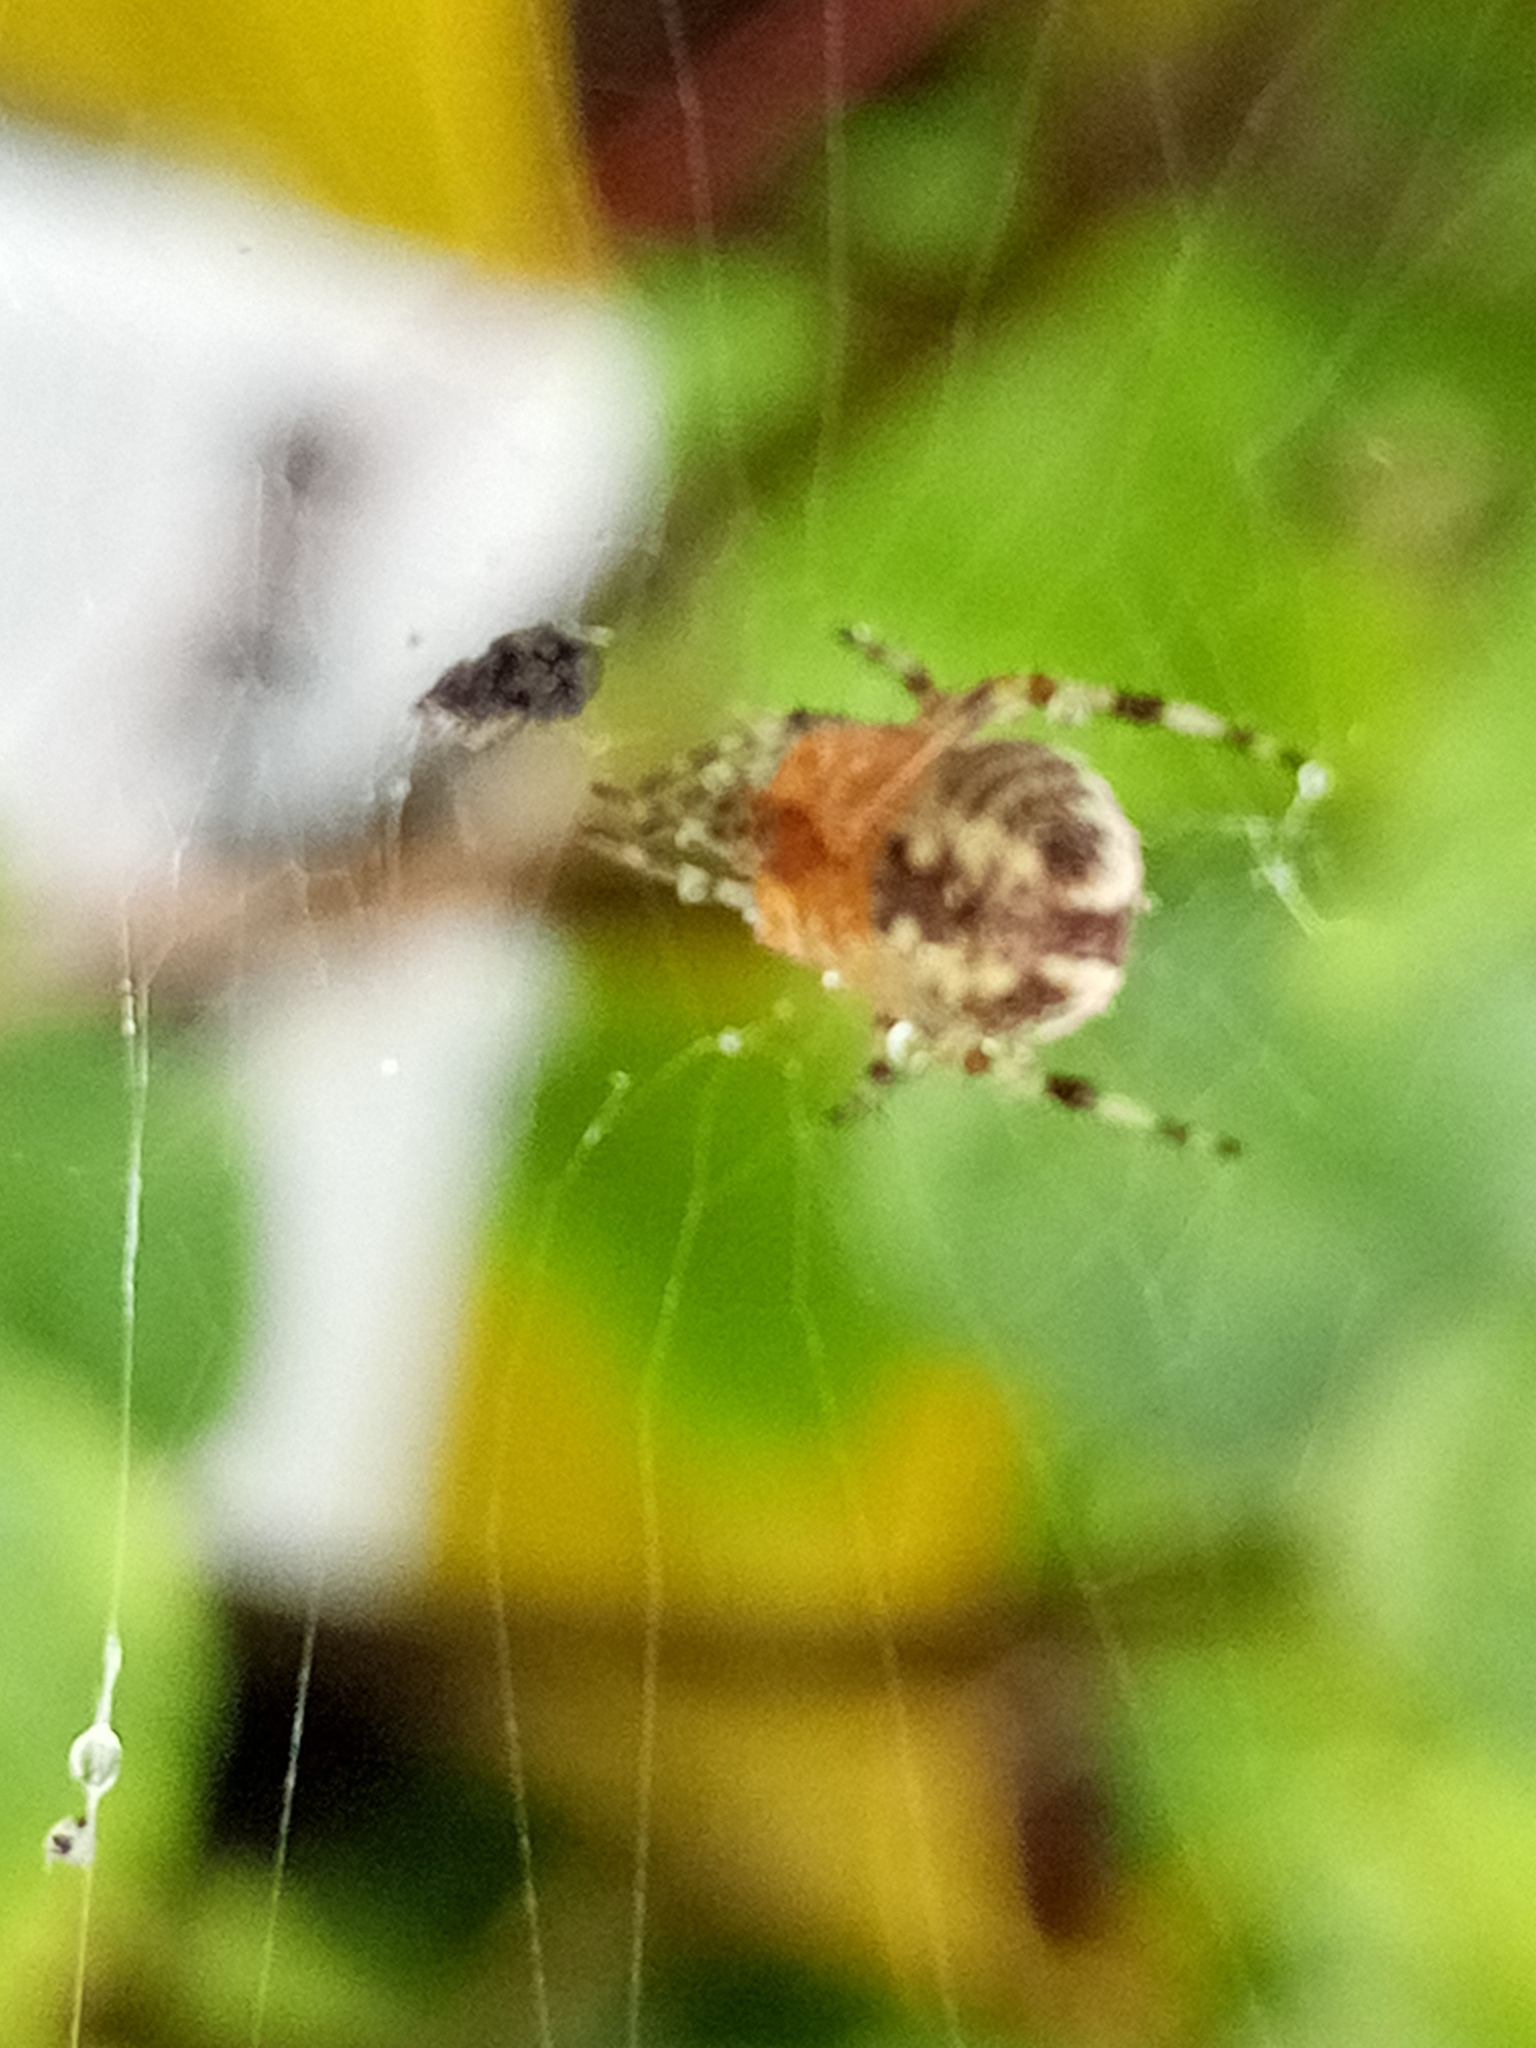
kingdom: Animalia
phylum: Arthropoda
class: Arachnida
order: Araneae
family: Araneidae
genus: Araneus
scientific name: Araneus diadematus
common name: Cross orbweaver
